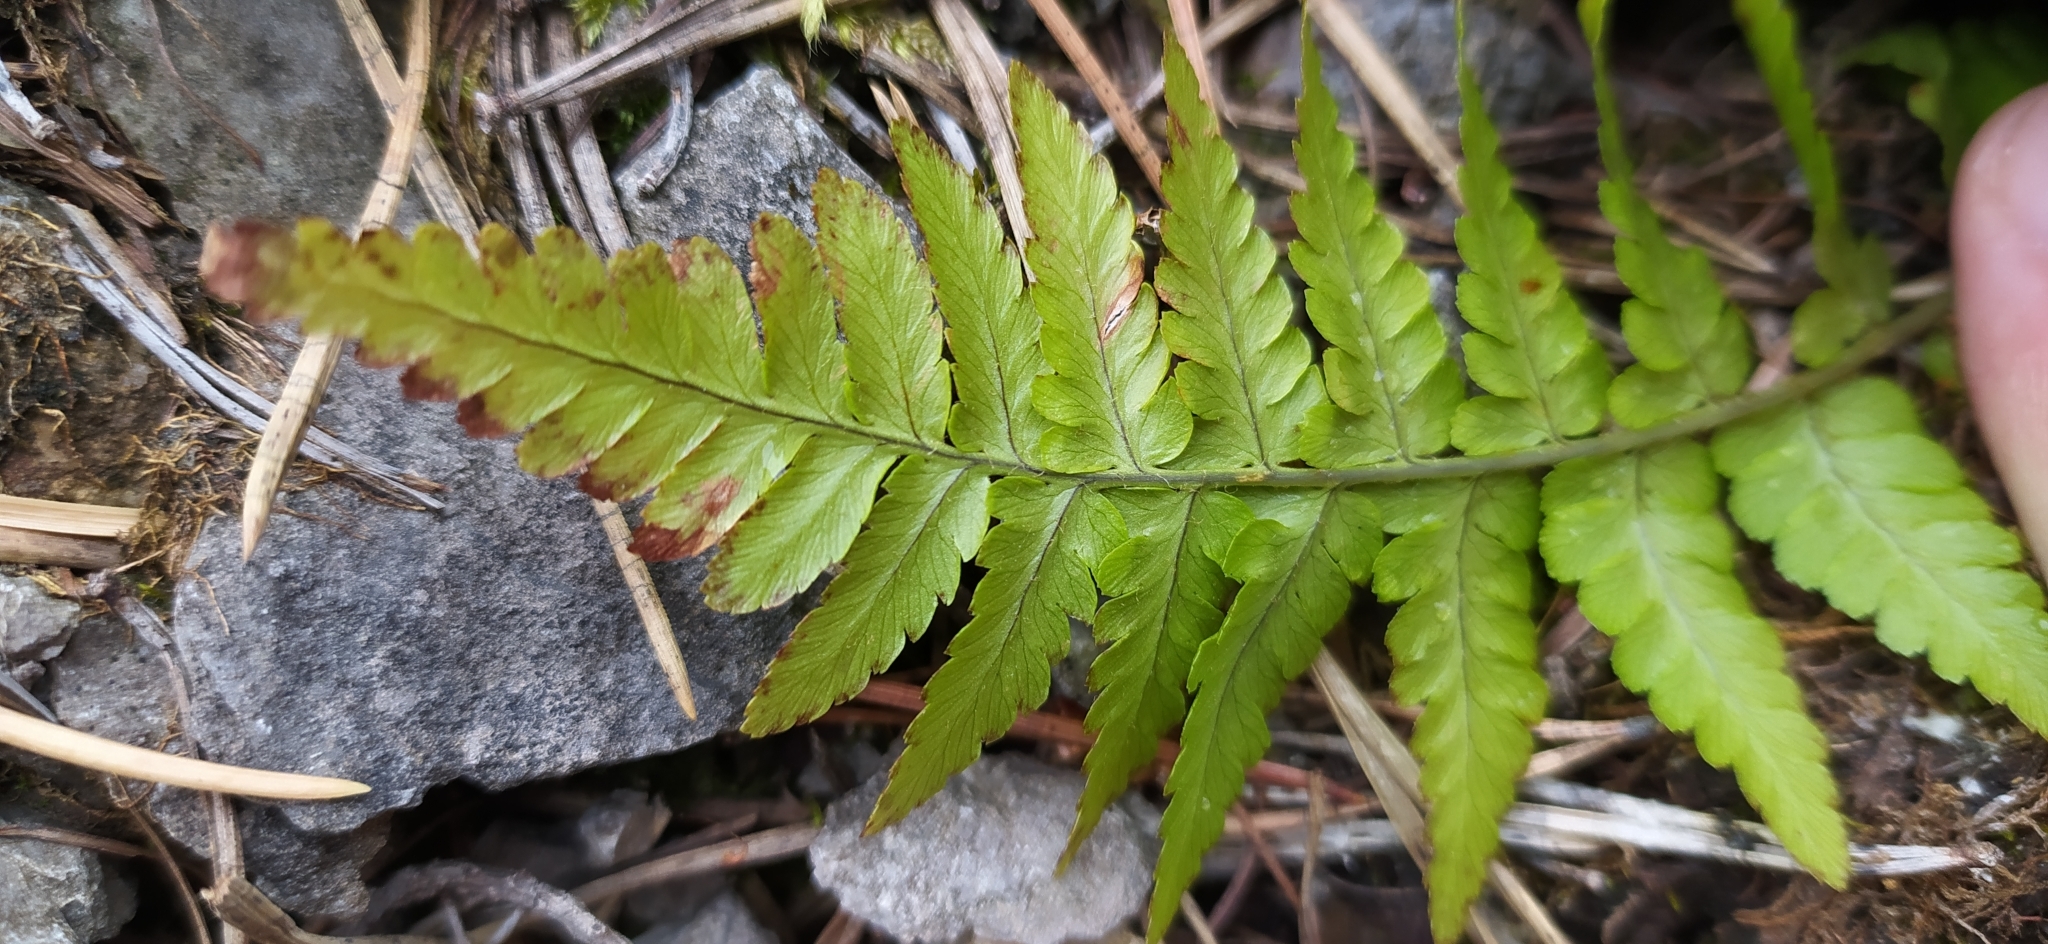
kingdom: Plantae
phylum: Tracheophyta
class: Polypodiopsida
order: Polypodiales
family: Dryopteridaceae
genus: Dryopteris
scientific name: Dryopteris filix-mas
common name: Male fern
